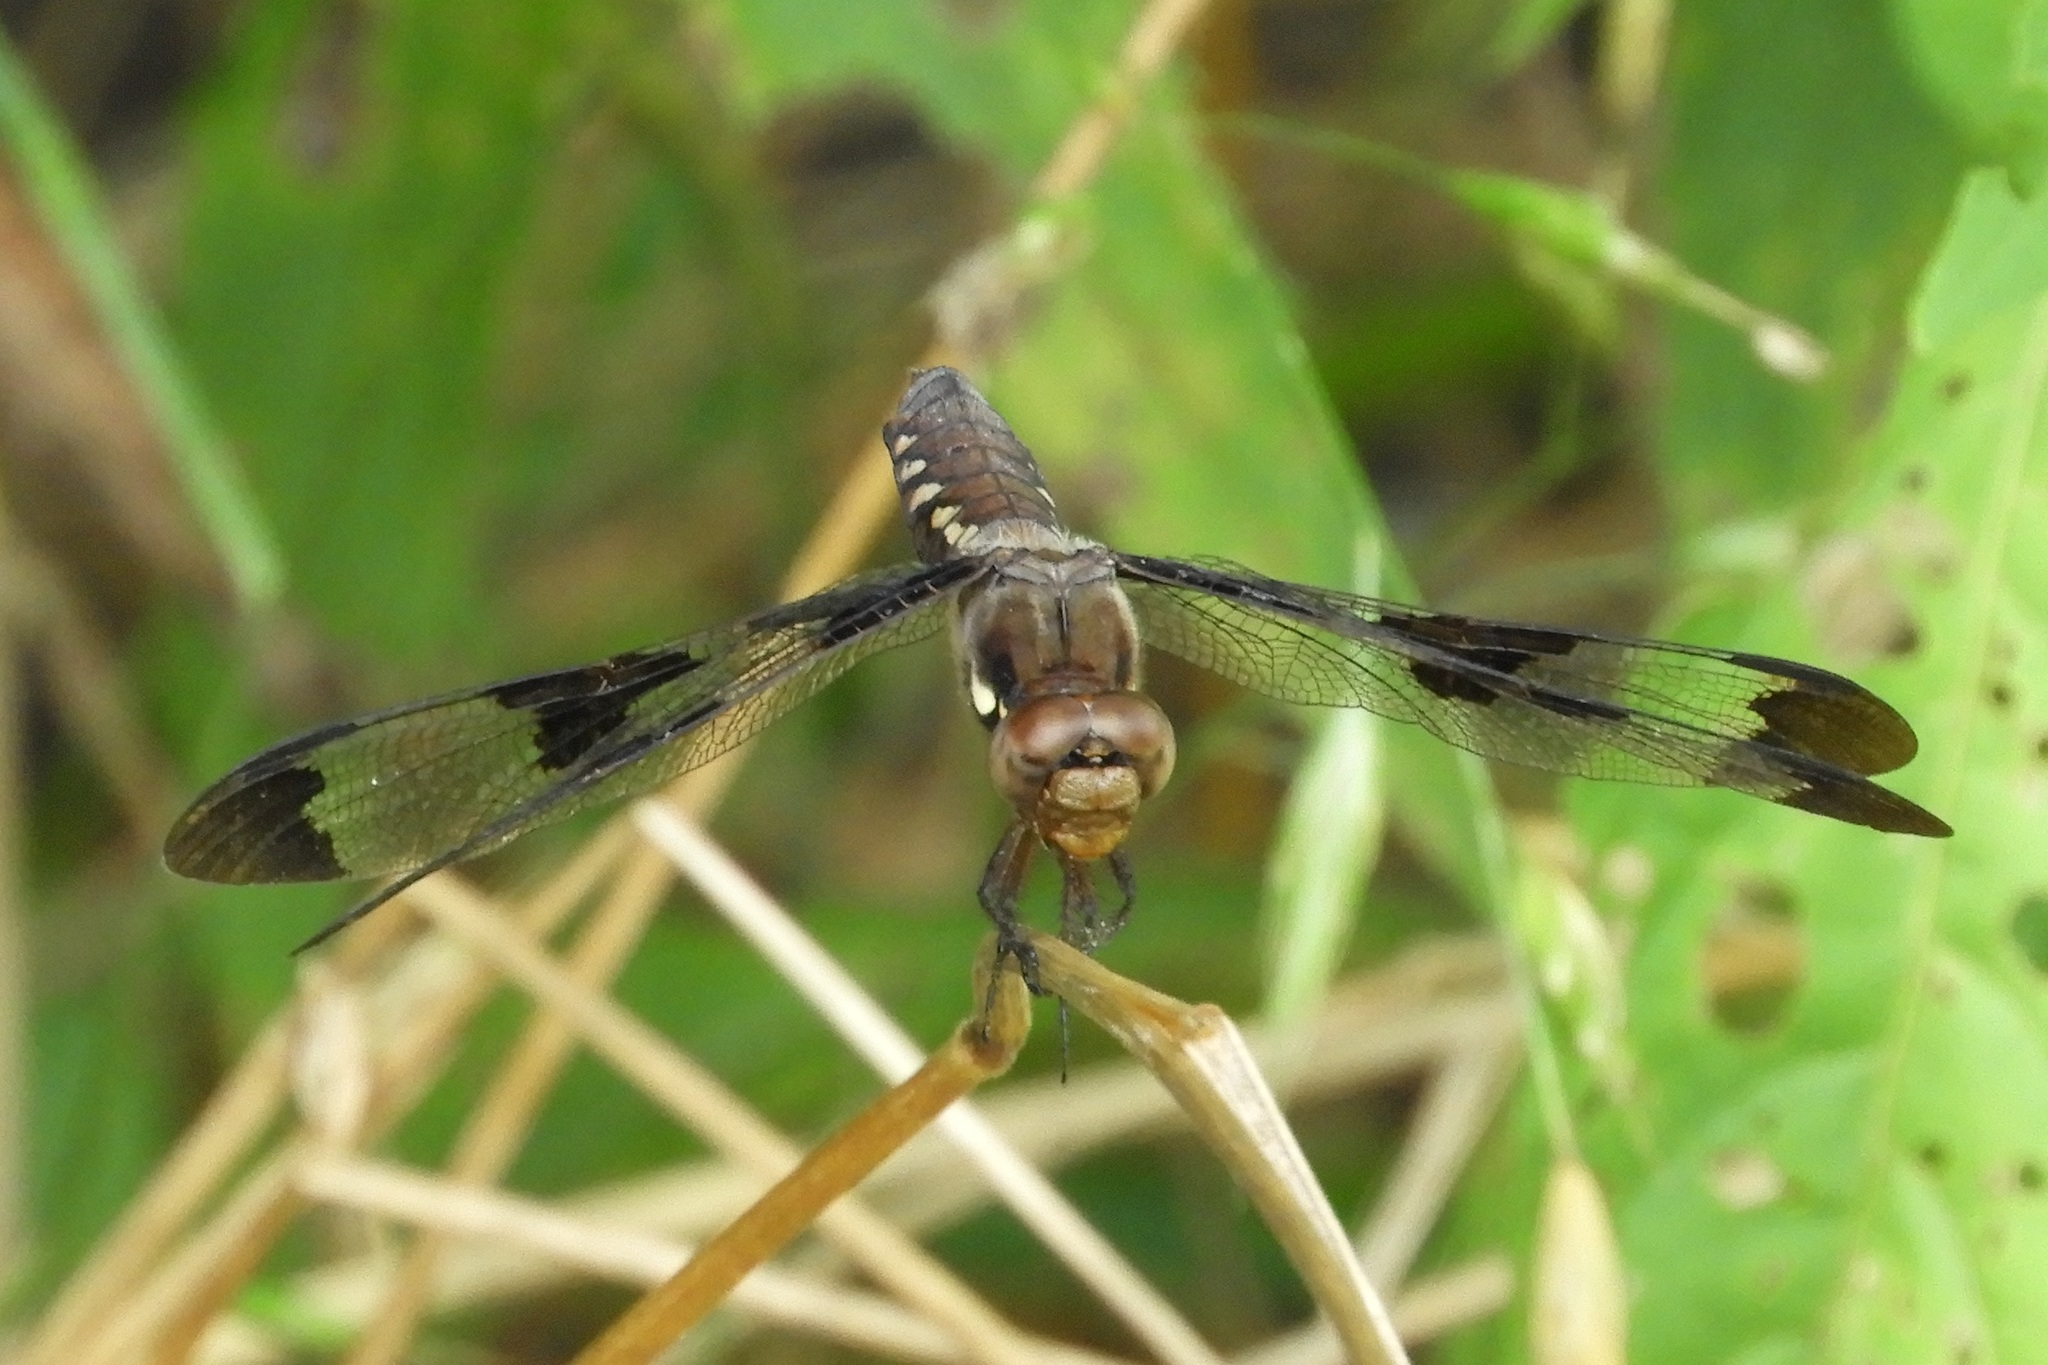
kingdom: Animalia
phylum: Arthropoda
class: Insecta
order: Odonata
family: Libellulidae
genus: Plathemis
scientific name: Plathemis lydia
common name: Common whitetail
